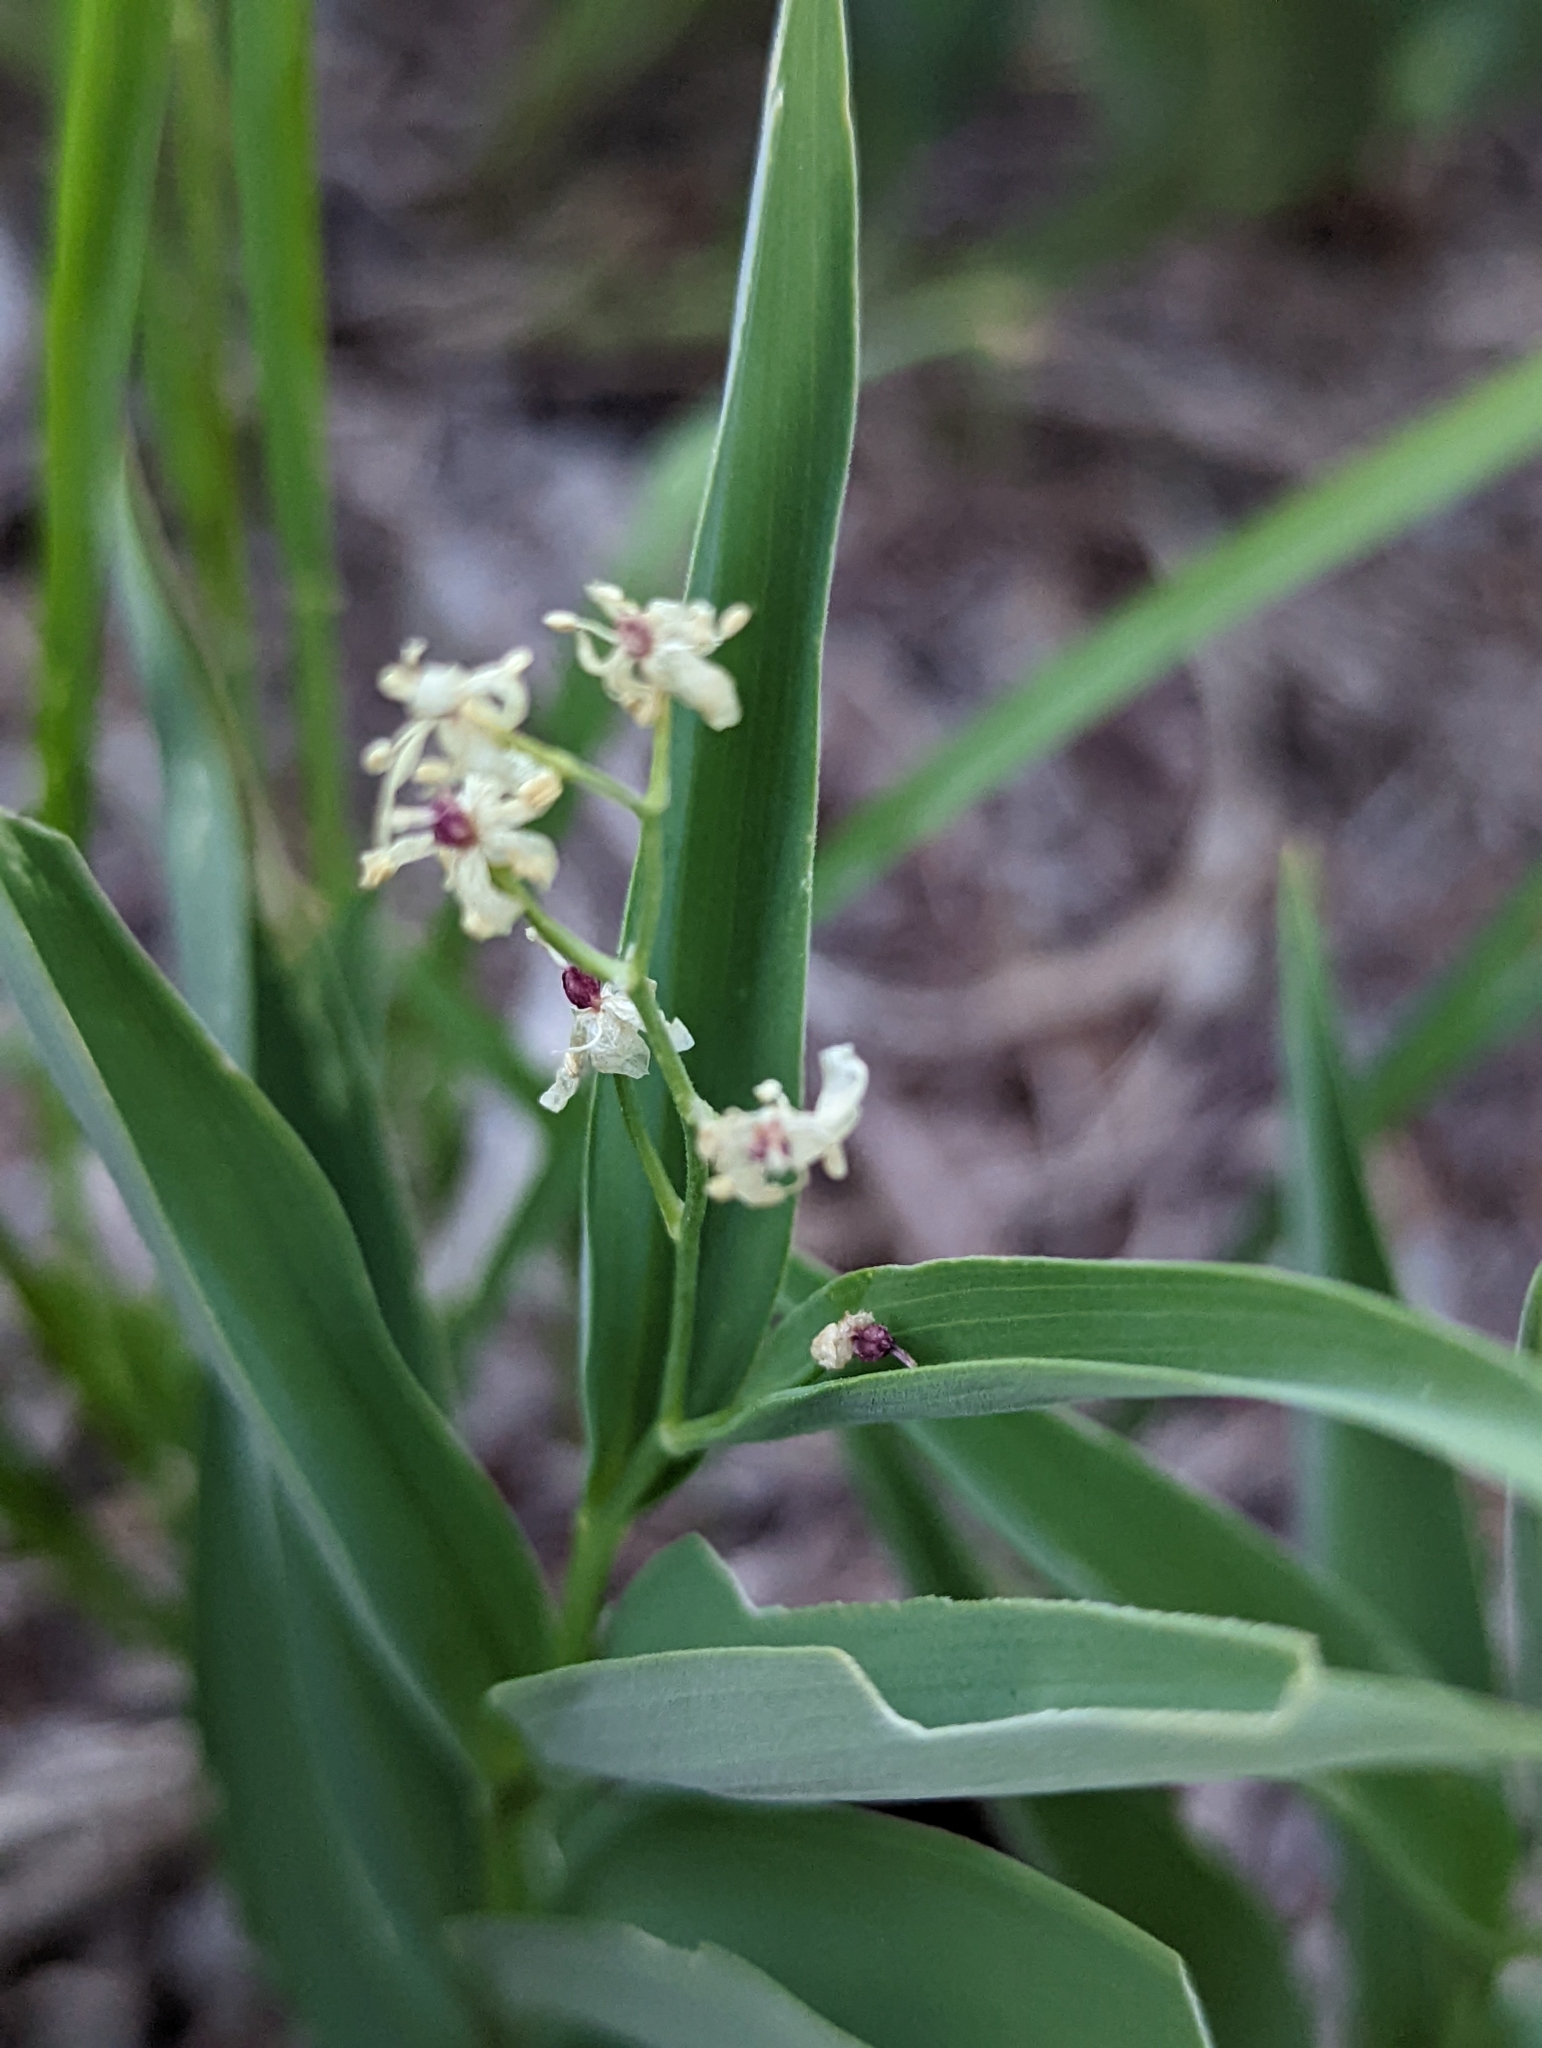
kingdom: Plantae
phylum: Tracheophyta
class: Liliopsida
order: Asparagales
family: Asparagaceae
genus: Maianthemum
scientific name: Maianthemum stellatum
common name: Little false solomon's seal
